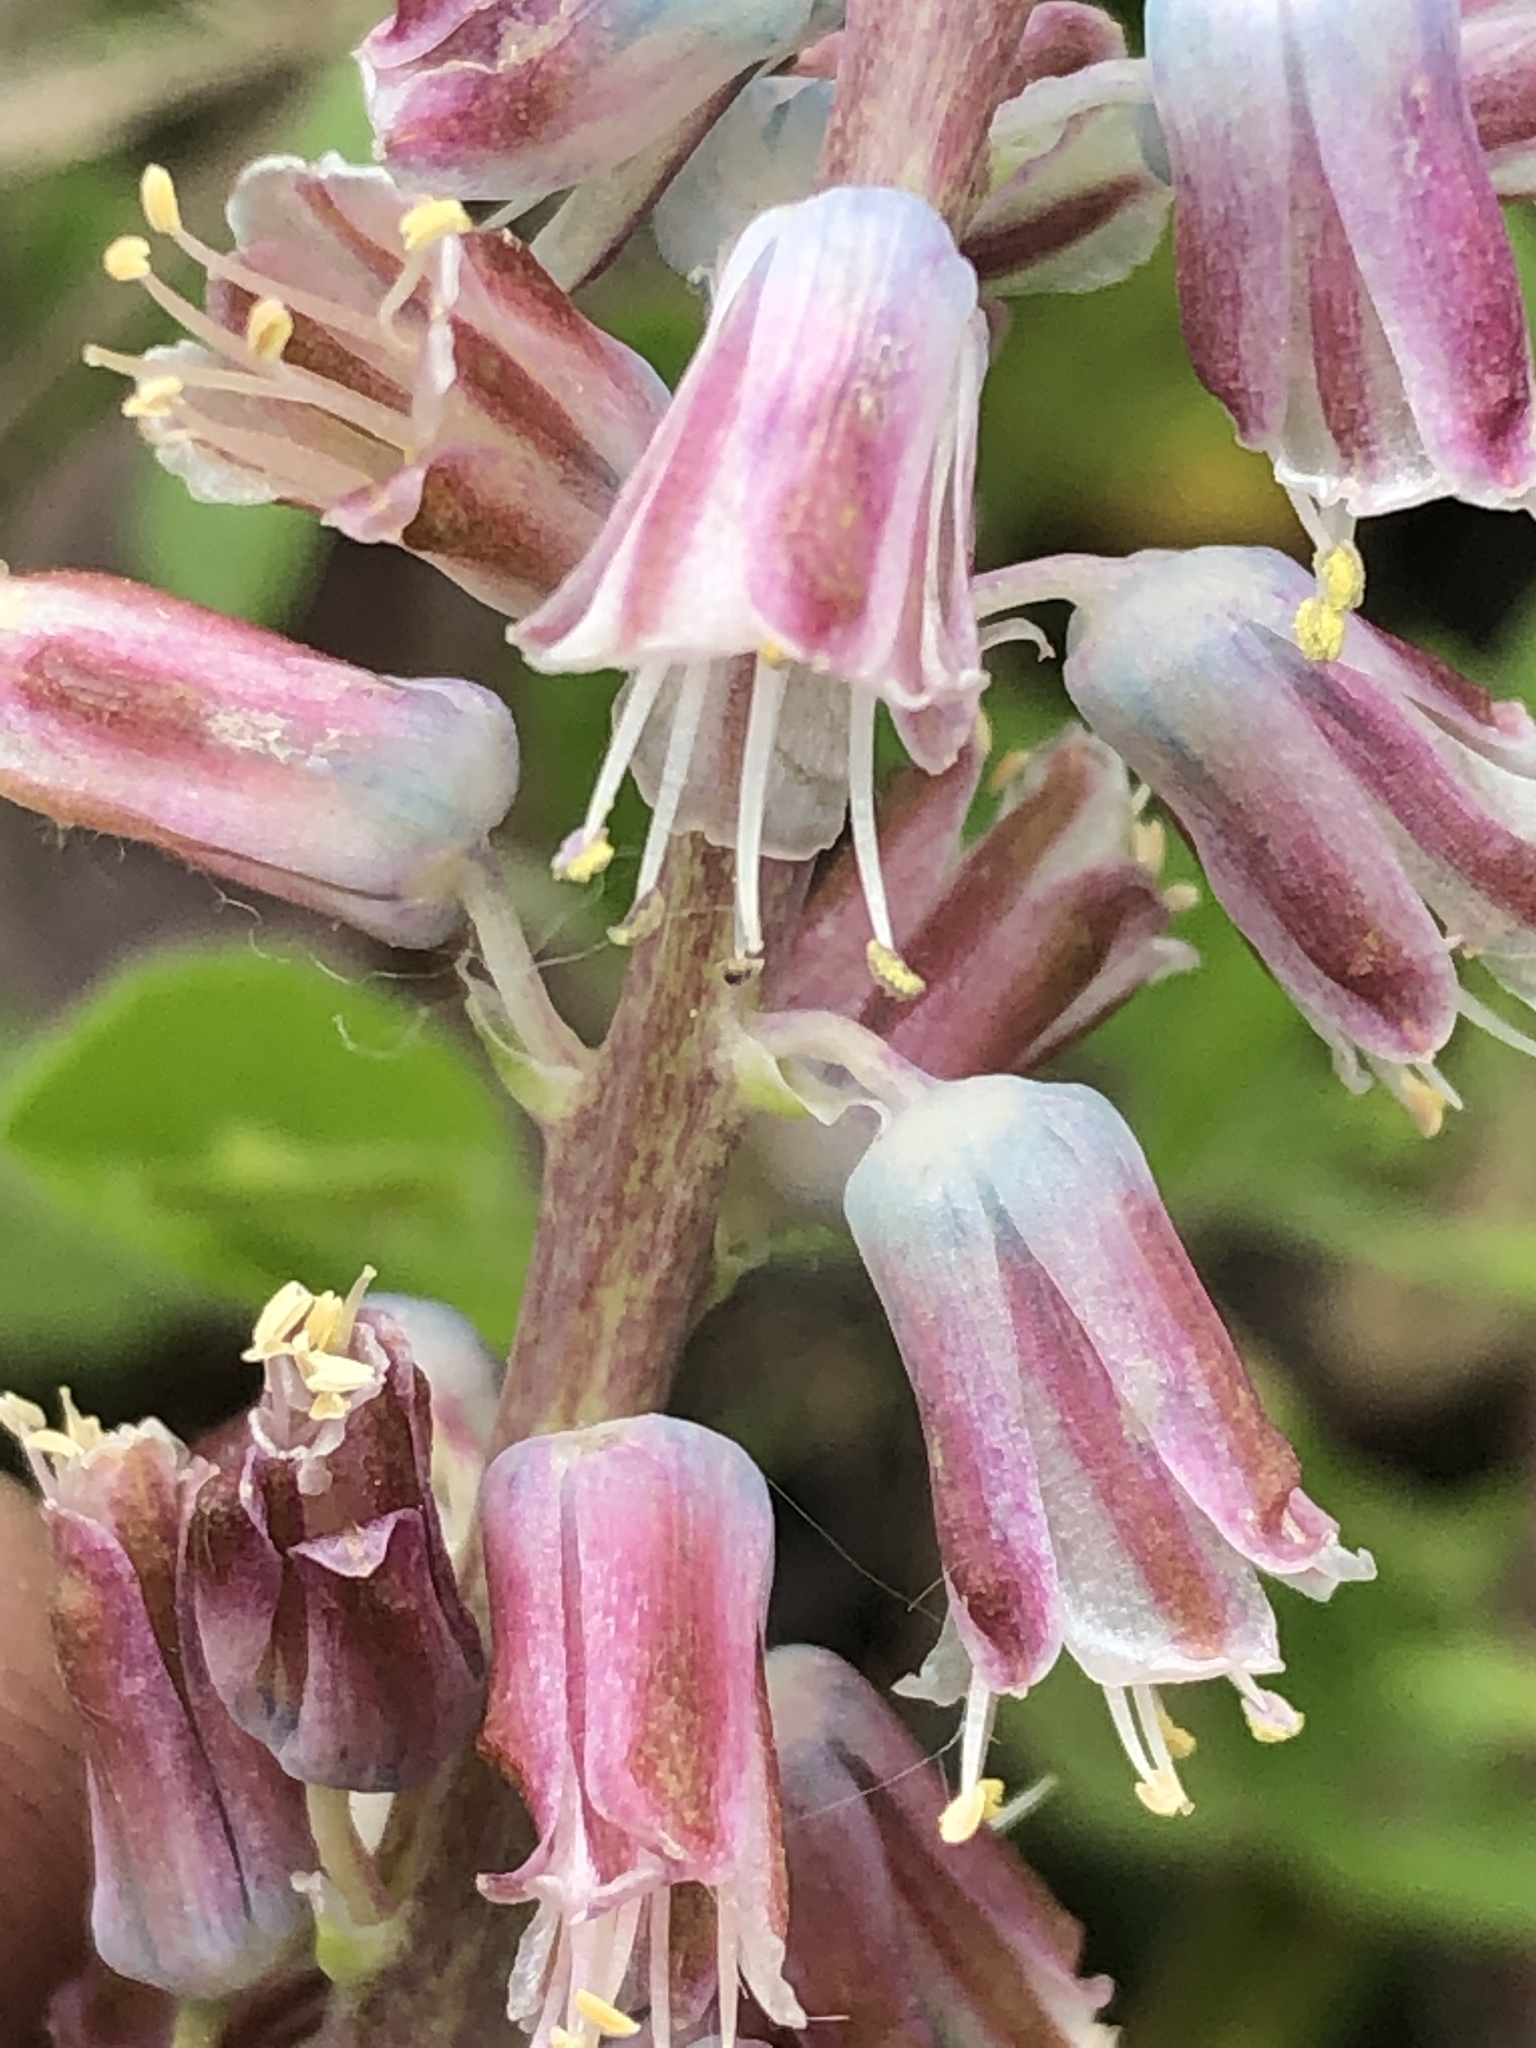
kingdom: Plantae
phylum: Tracheophyta
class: Liliopsida
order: Asparagales
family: Asparagaceae
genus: Lachenalia
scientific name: Lachenalia youngii
